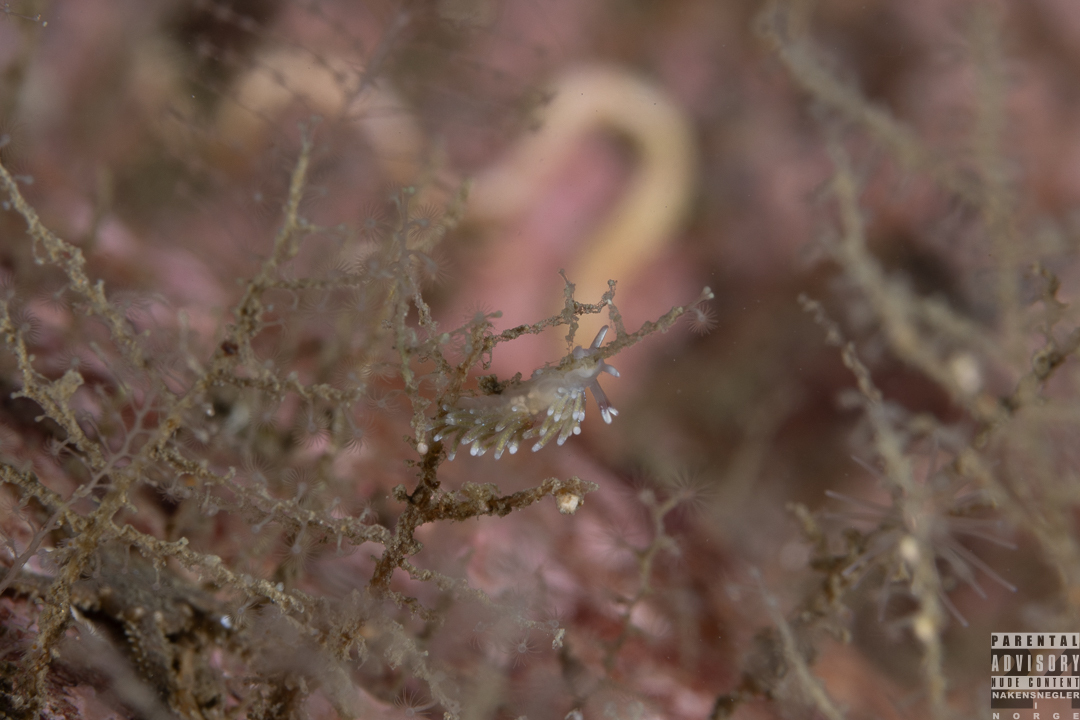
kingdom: Animalia
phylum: Mollusca
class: Gastropoda
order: Nudibranchia
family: Trinchesiidae
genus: Rubramoena
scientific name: Rubramoena rubescens
